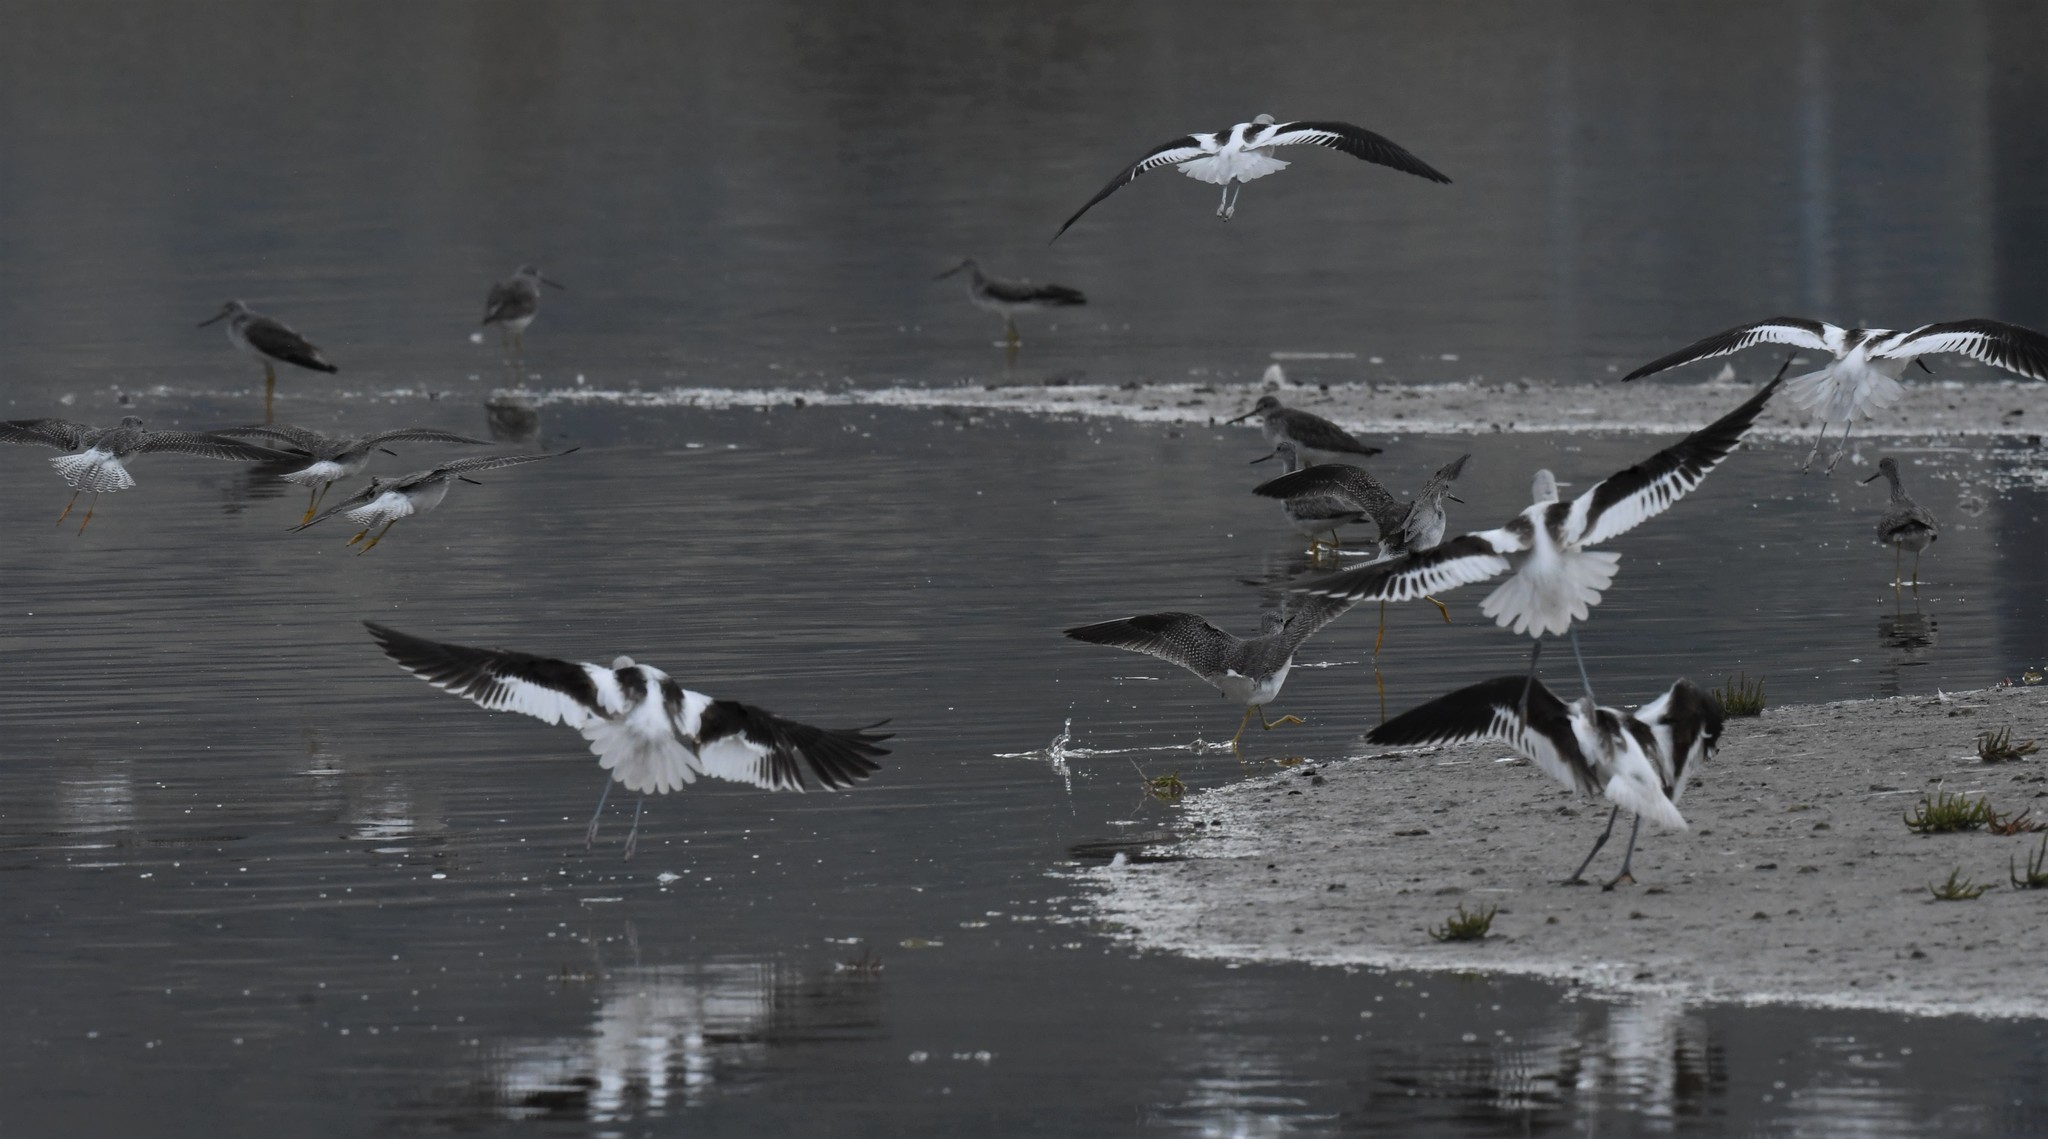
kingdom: Animalia
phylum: Chordata
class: Aves
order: Charadriiformes
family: Recurvirostridae
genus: Recurvirostra
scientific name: Recurvirostra americana
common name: American avocet
